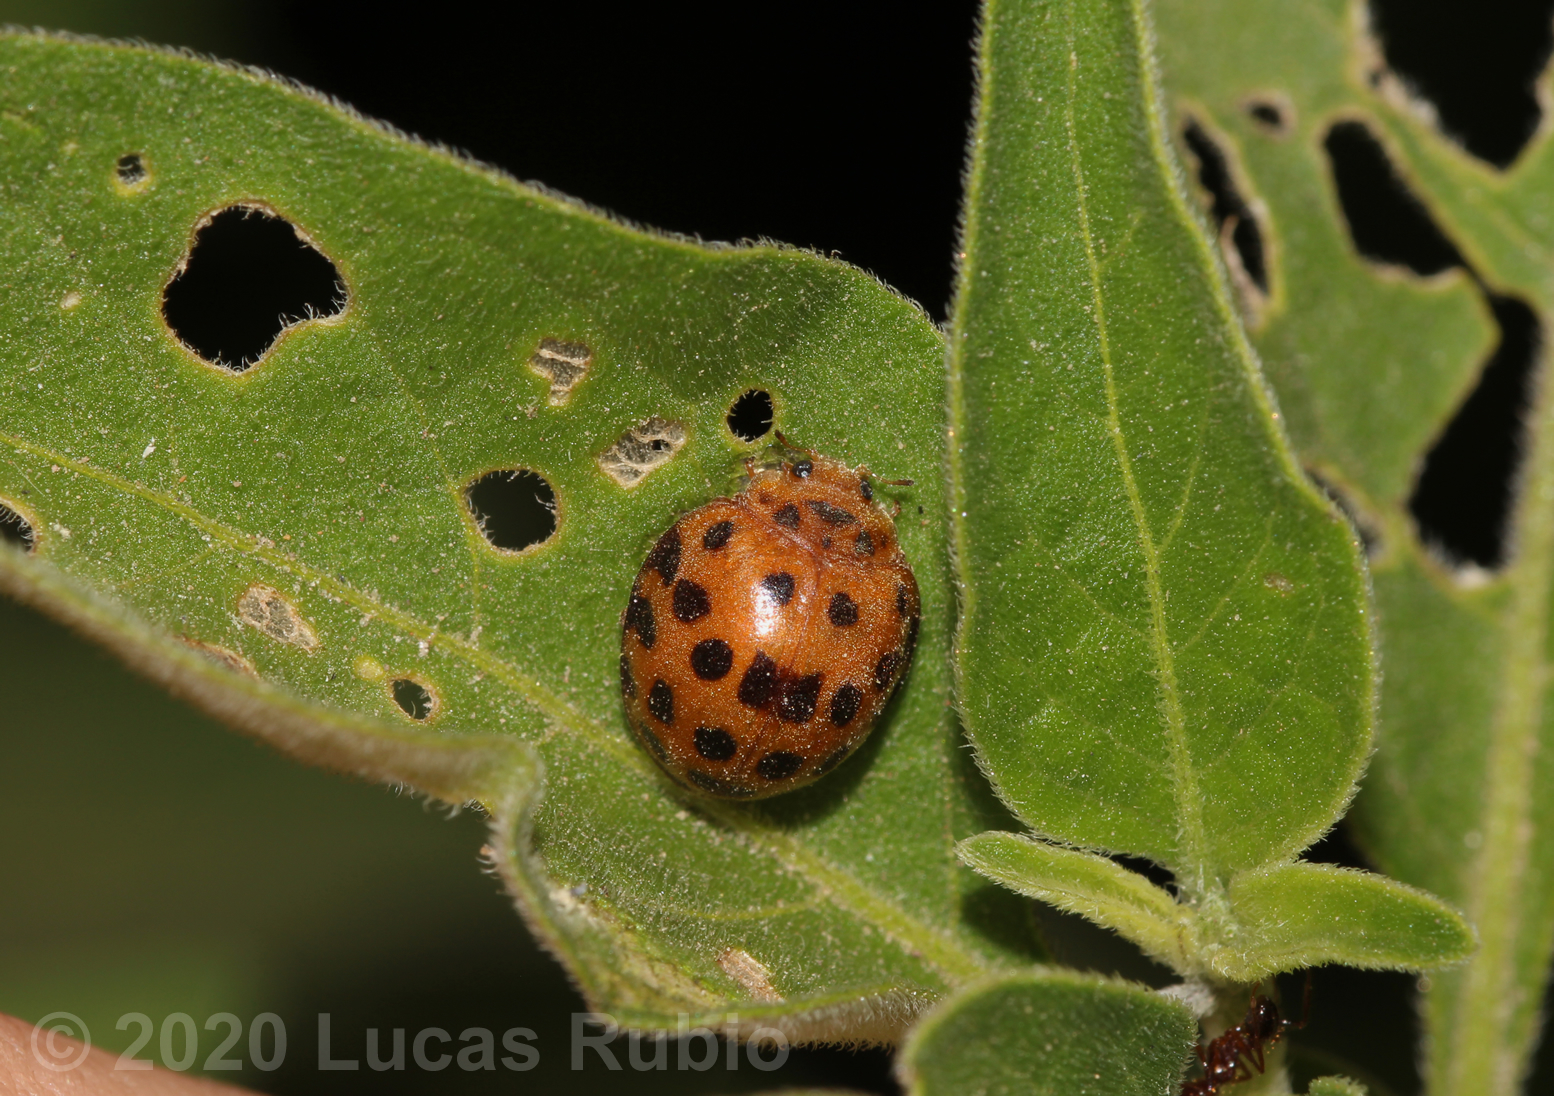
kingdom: Animalia
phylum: Arthropoda
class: Insecta
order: Coleoptera
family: Coccinellidae
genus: Henosepilachna
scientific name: Henosepilachna vigintioctopunctata
